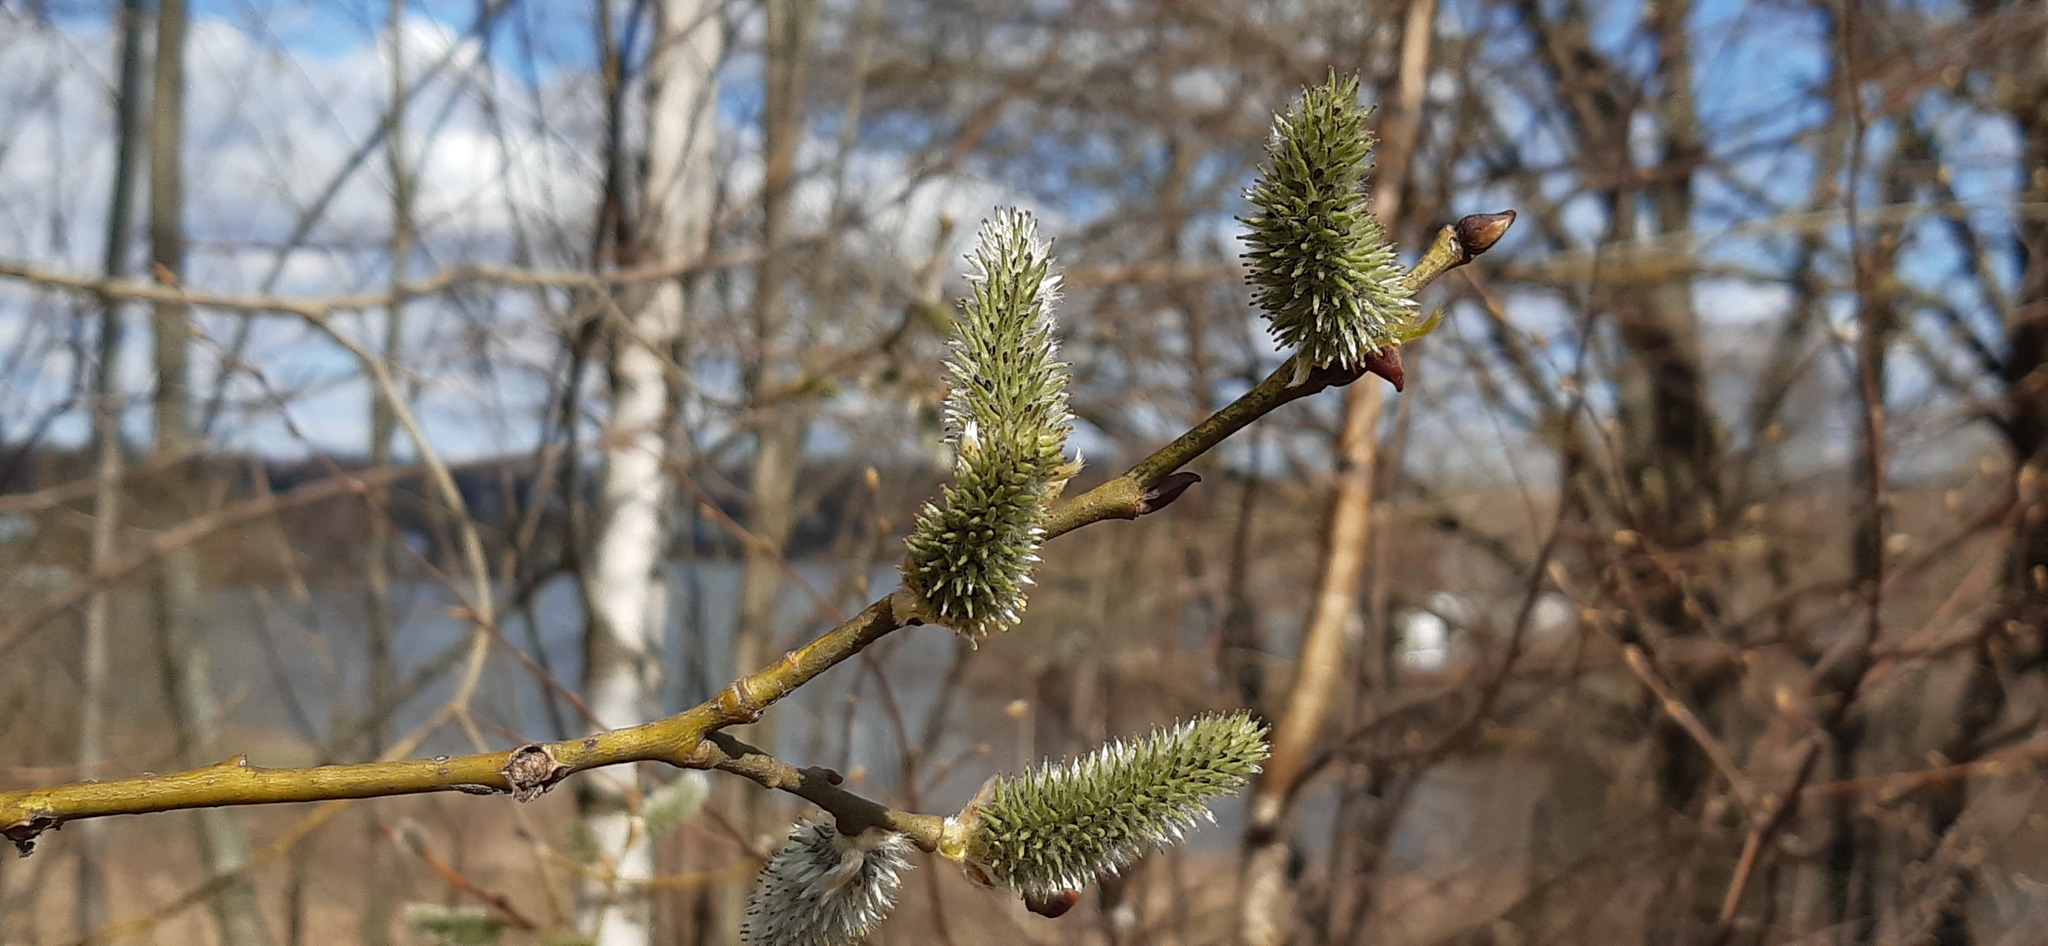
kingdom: Plantae
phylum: Tracheophyta
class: Magnoliopsida
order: Malpighiales
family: Salicaceae
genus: Salix
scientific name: Salix caprea
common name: Goat willow
